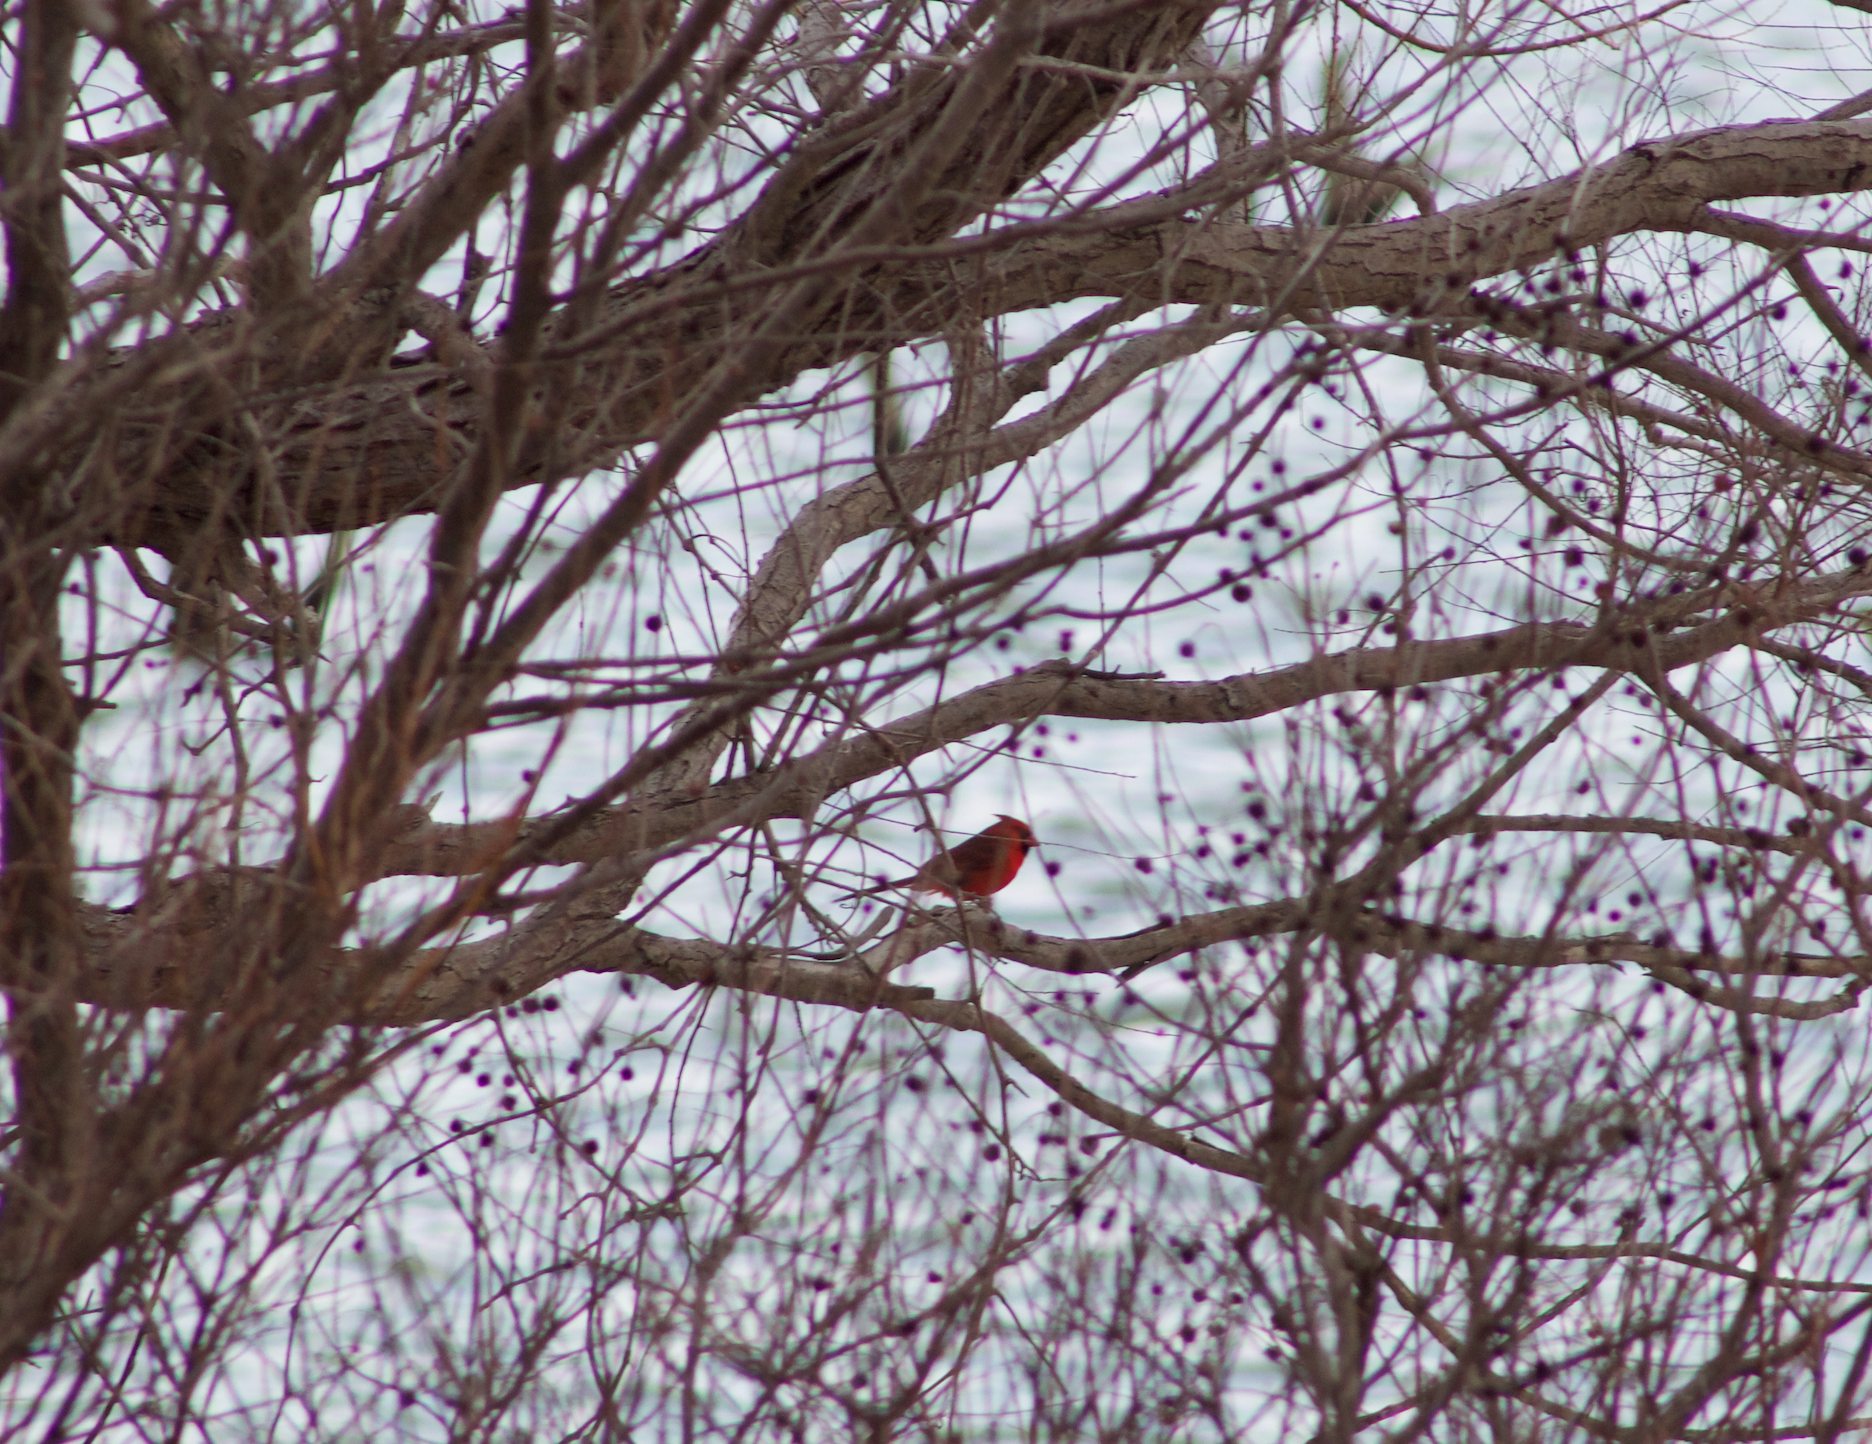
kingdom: Animalia
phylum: Chordata
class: Aves
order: Passeriformes
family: Cardinalidae
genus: Cardinalis
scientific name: Cardinalis cardinalis
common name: Northern cardinal
